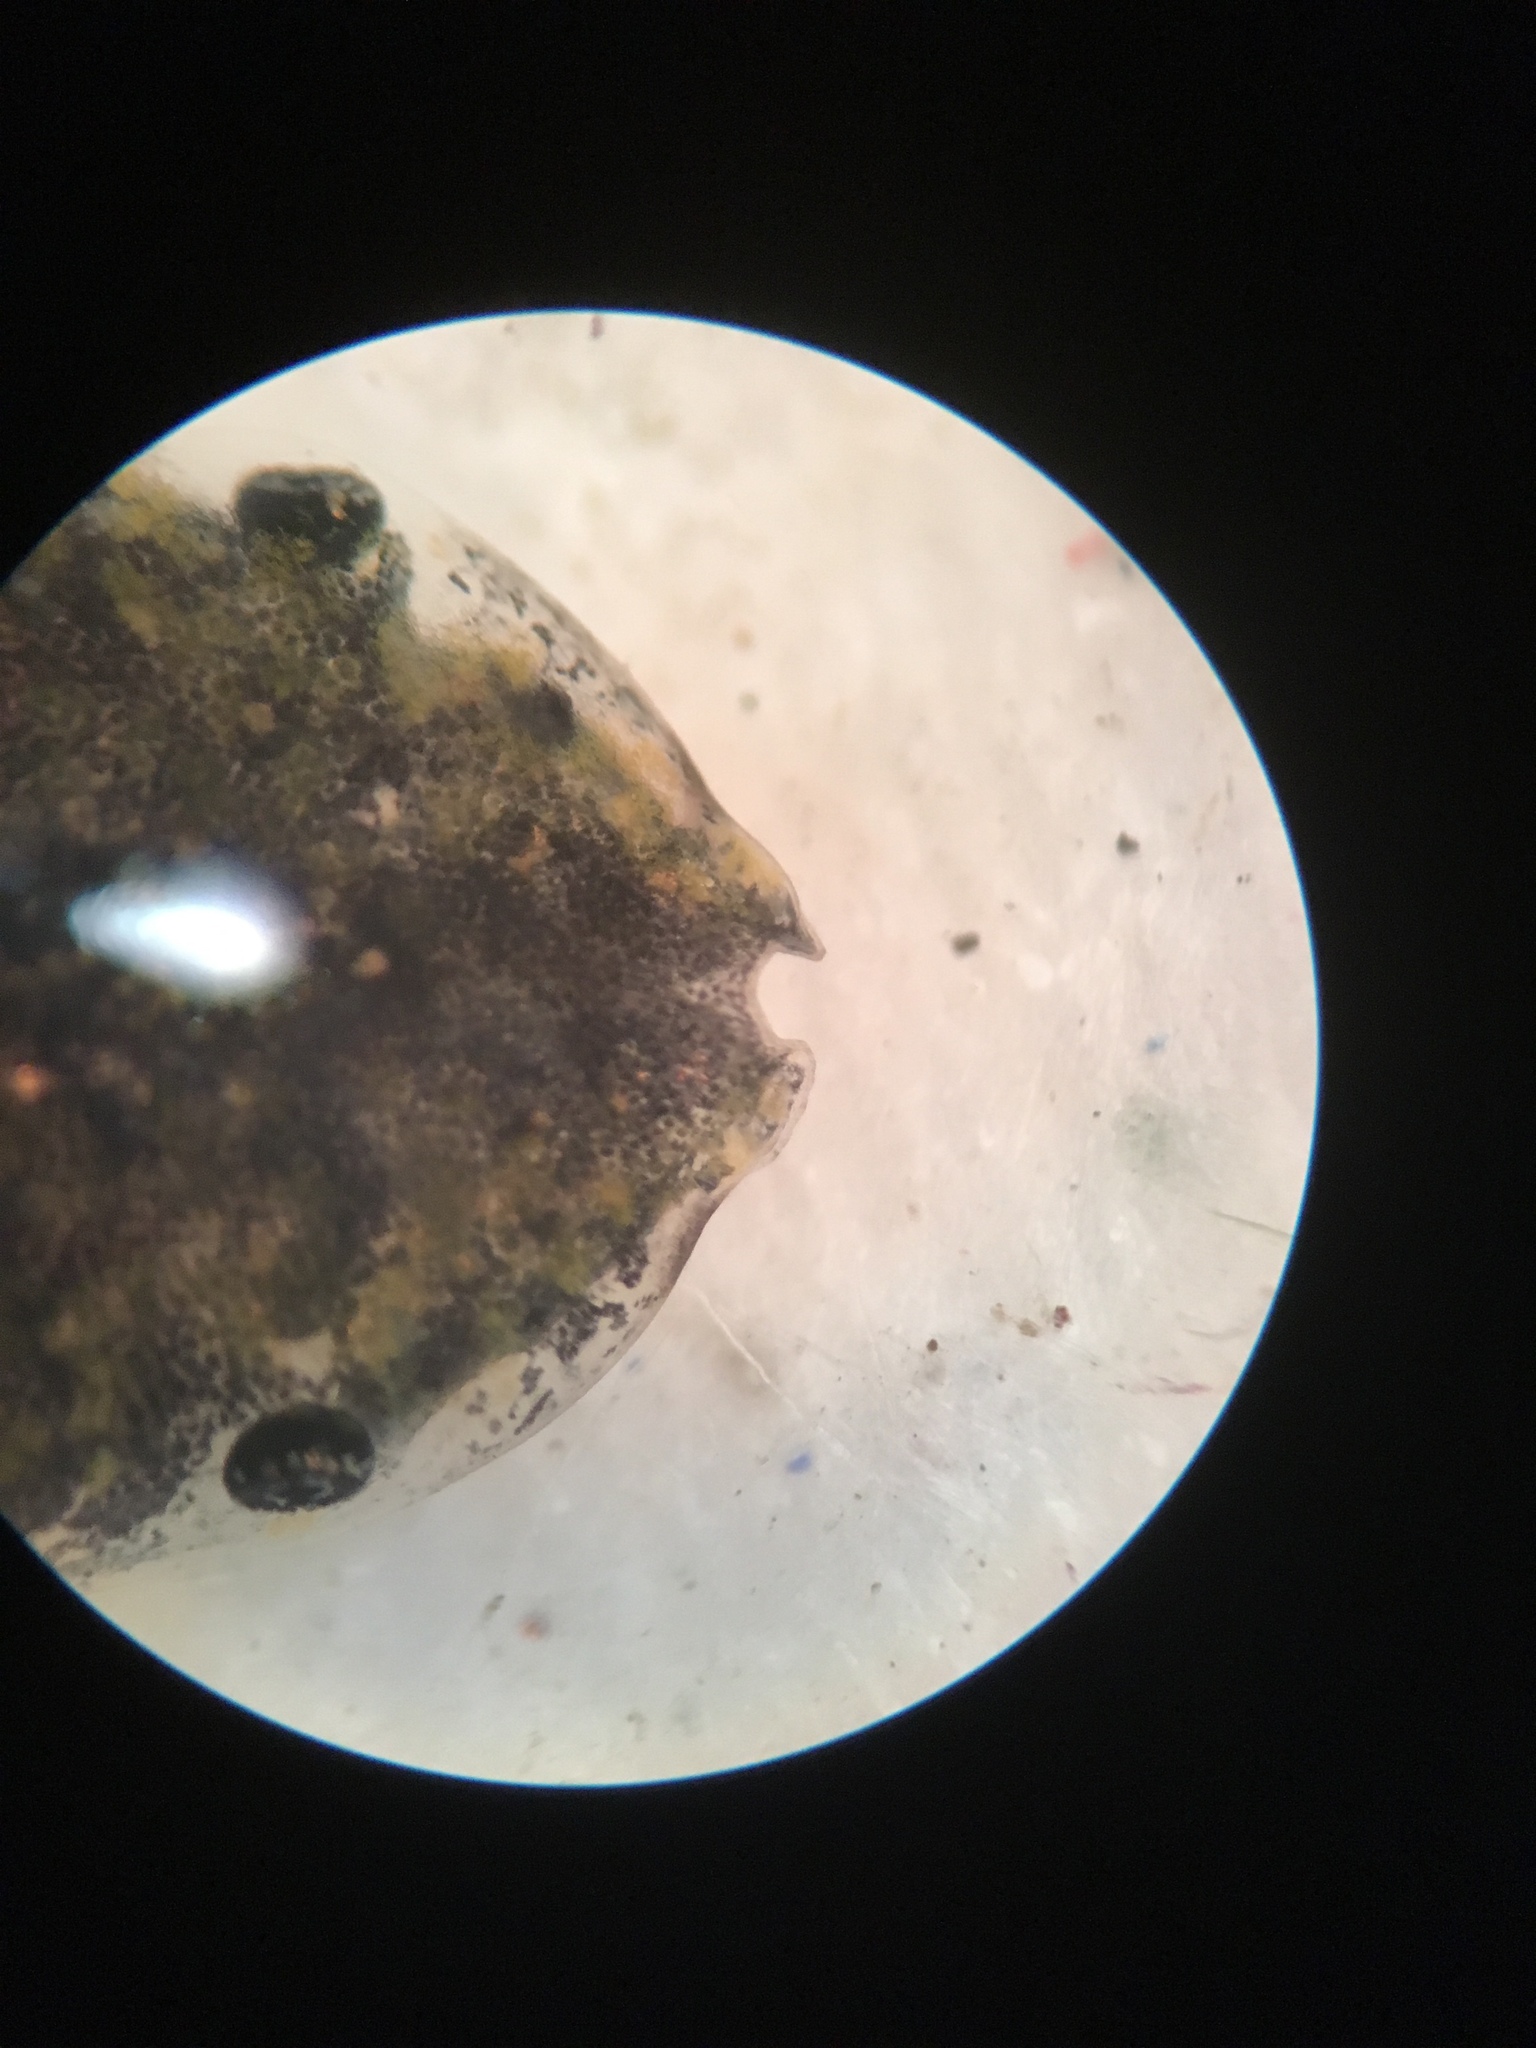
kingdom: Animalia
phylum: Chordata
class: Amphibia
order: Anura
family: Microhylidae
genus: Hypopachus
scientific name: Hypopachus variolosus
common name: Sheep frog
